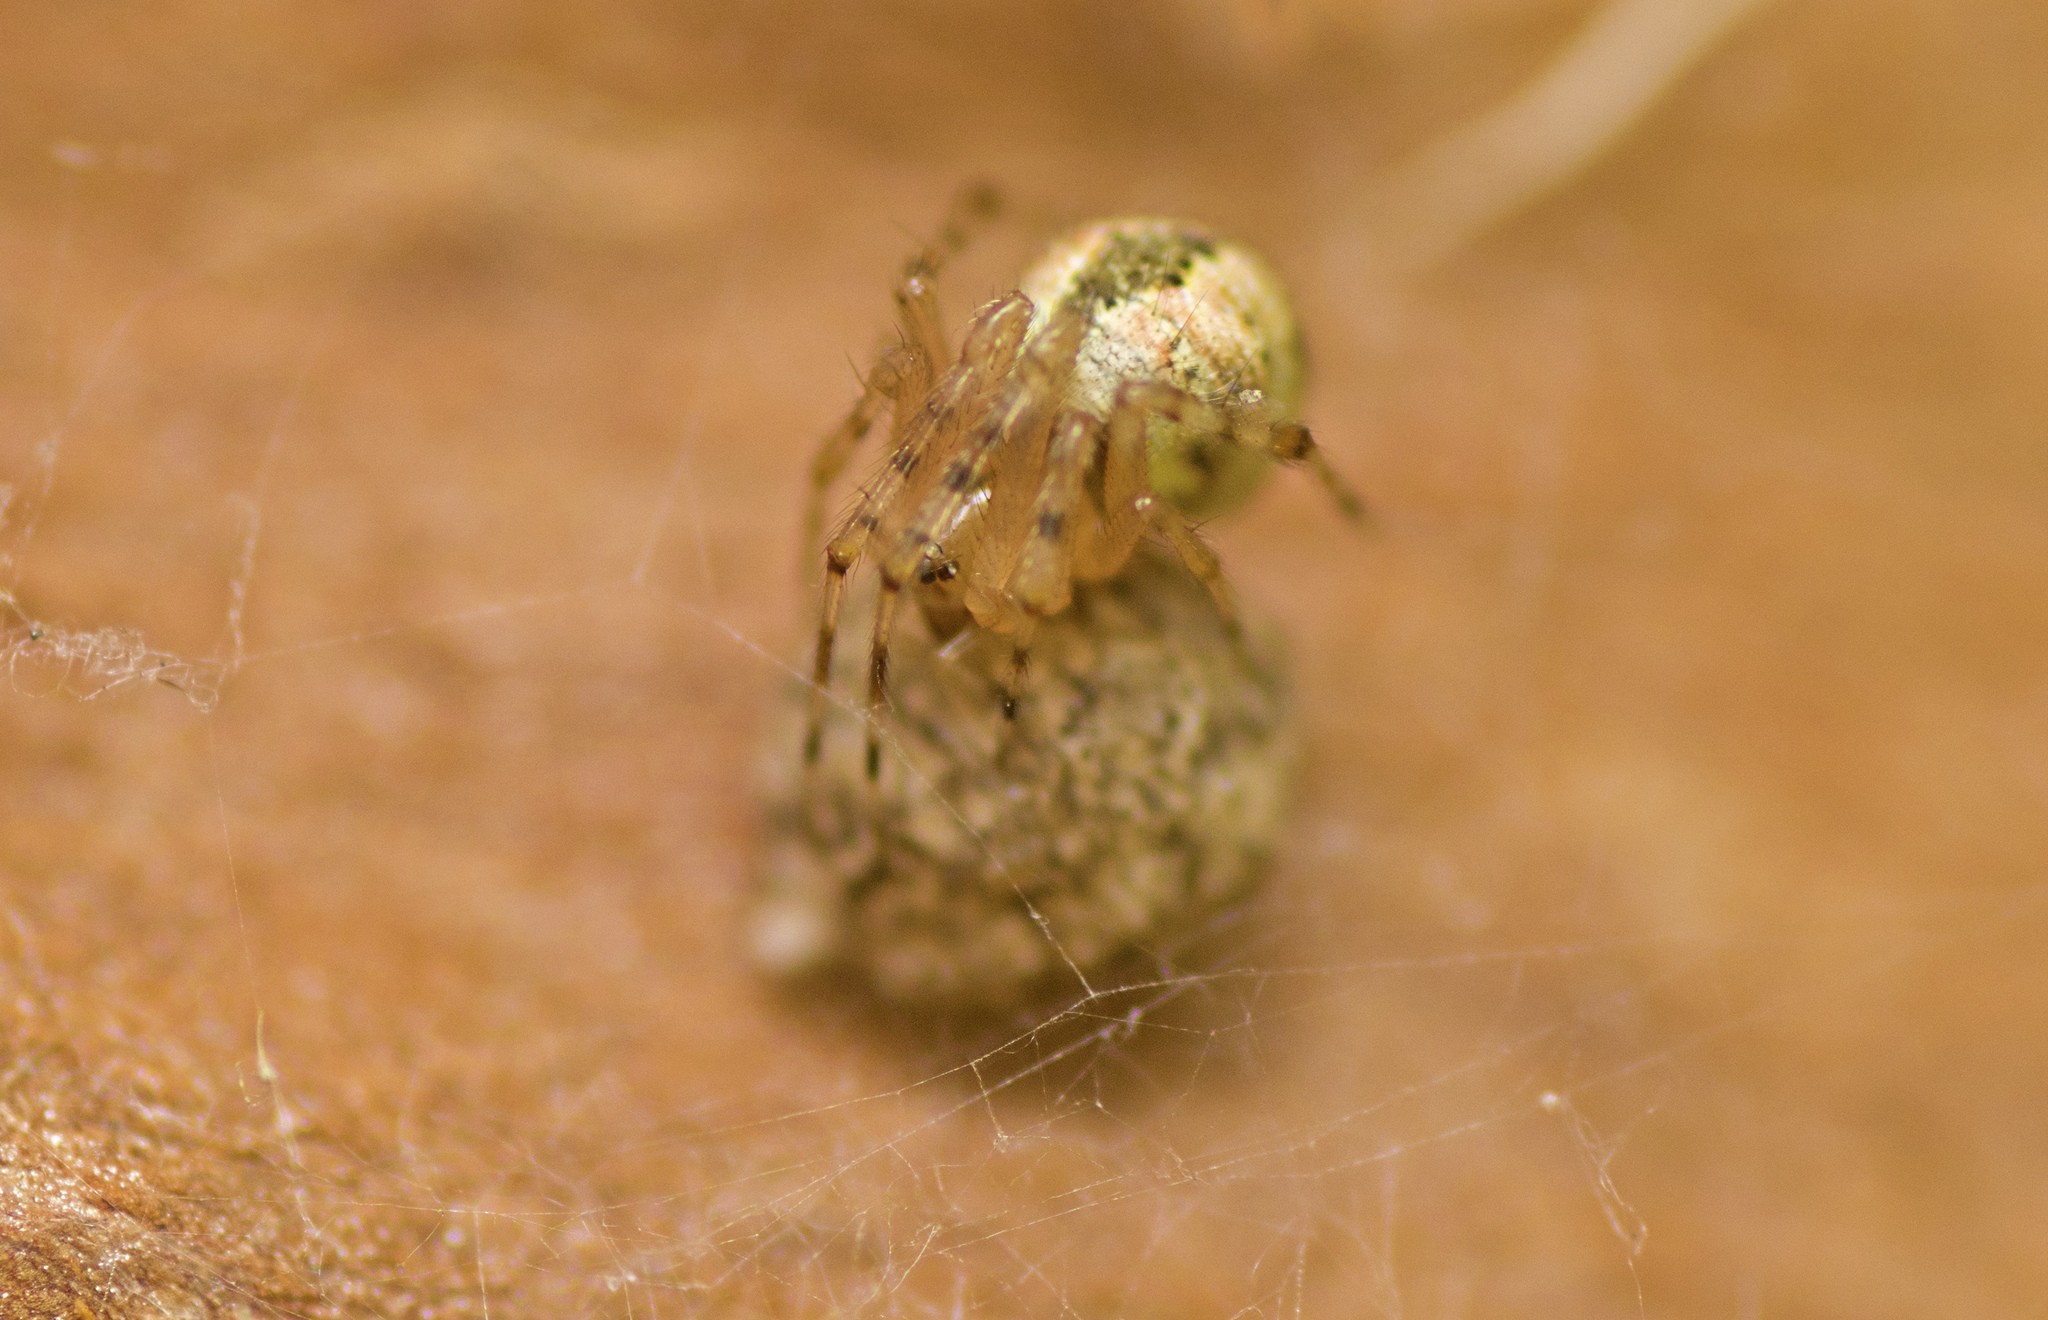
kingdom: Animalia
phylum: Arthropoda
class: Arachnida
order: Araneae
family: Theridiidae
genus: Cryptachaea
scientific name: Cryptachaea veruculata
